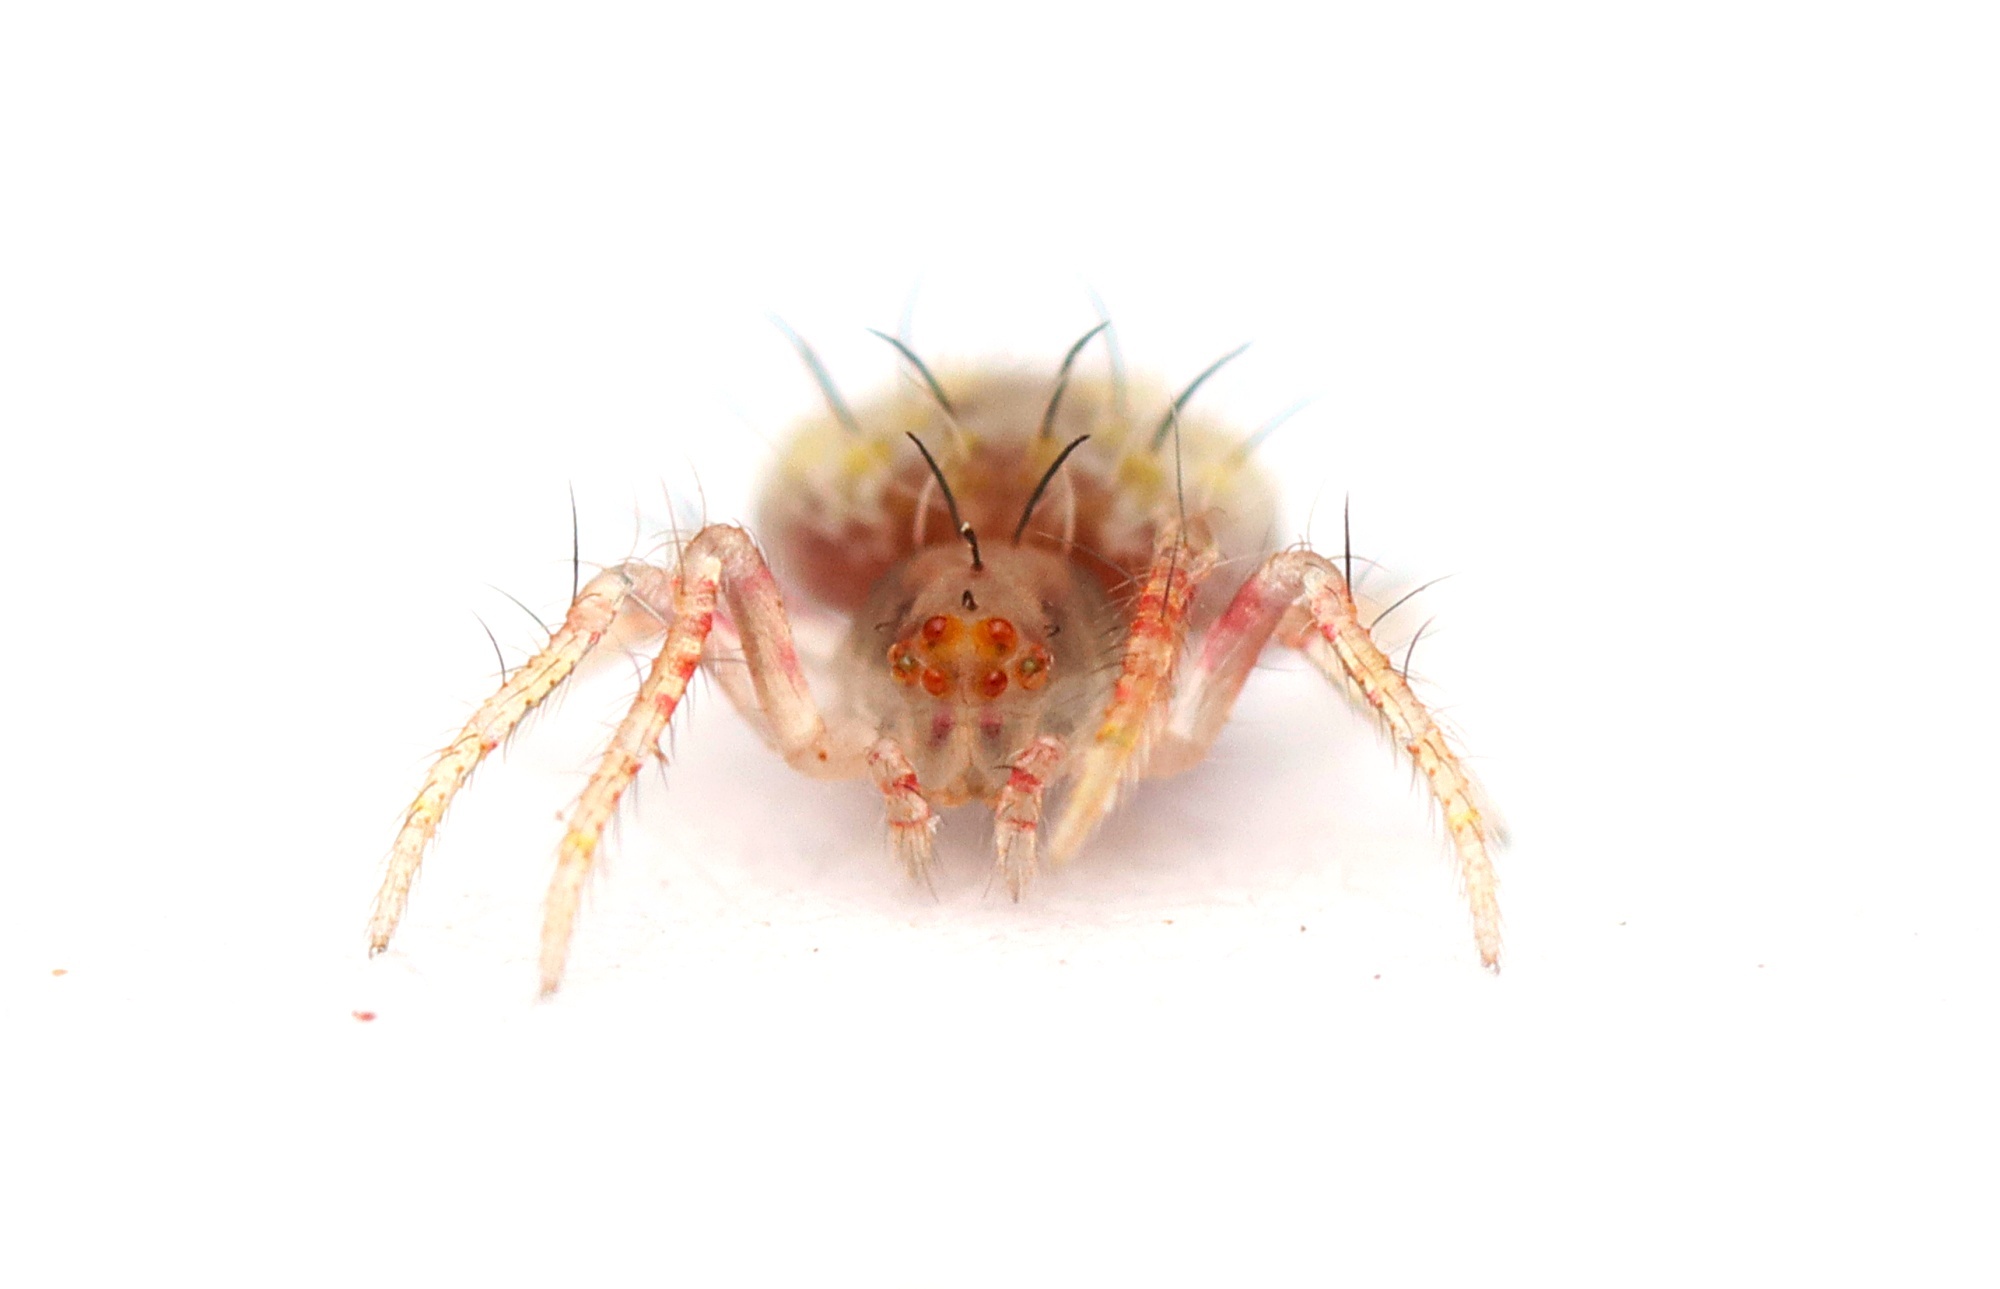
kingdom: Animalia
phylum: Arthropoda
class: Arachnida
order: Araneae
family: Araneidae
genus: Poecilopachys
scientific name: Poecilopachys australasia
